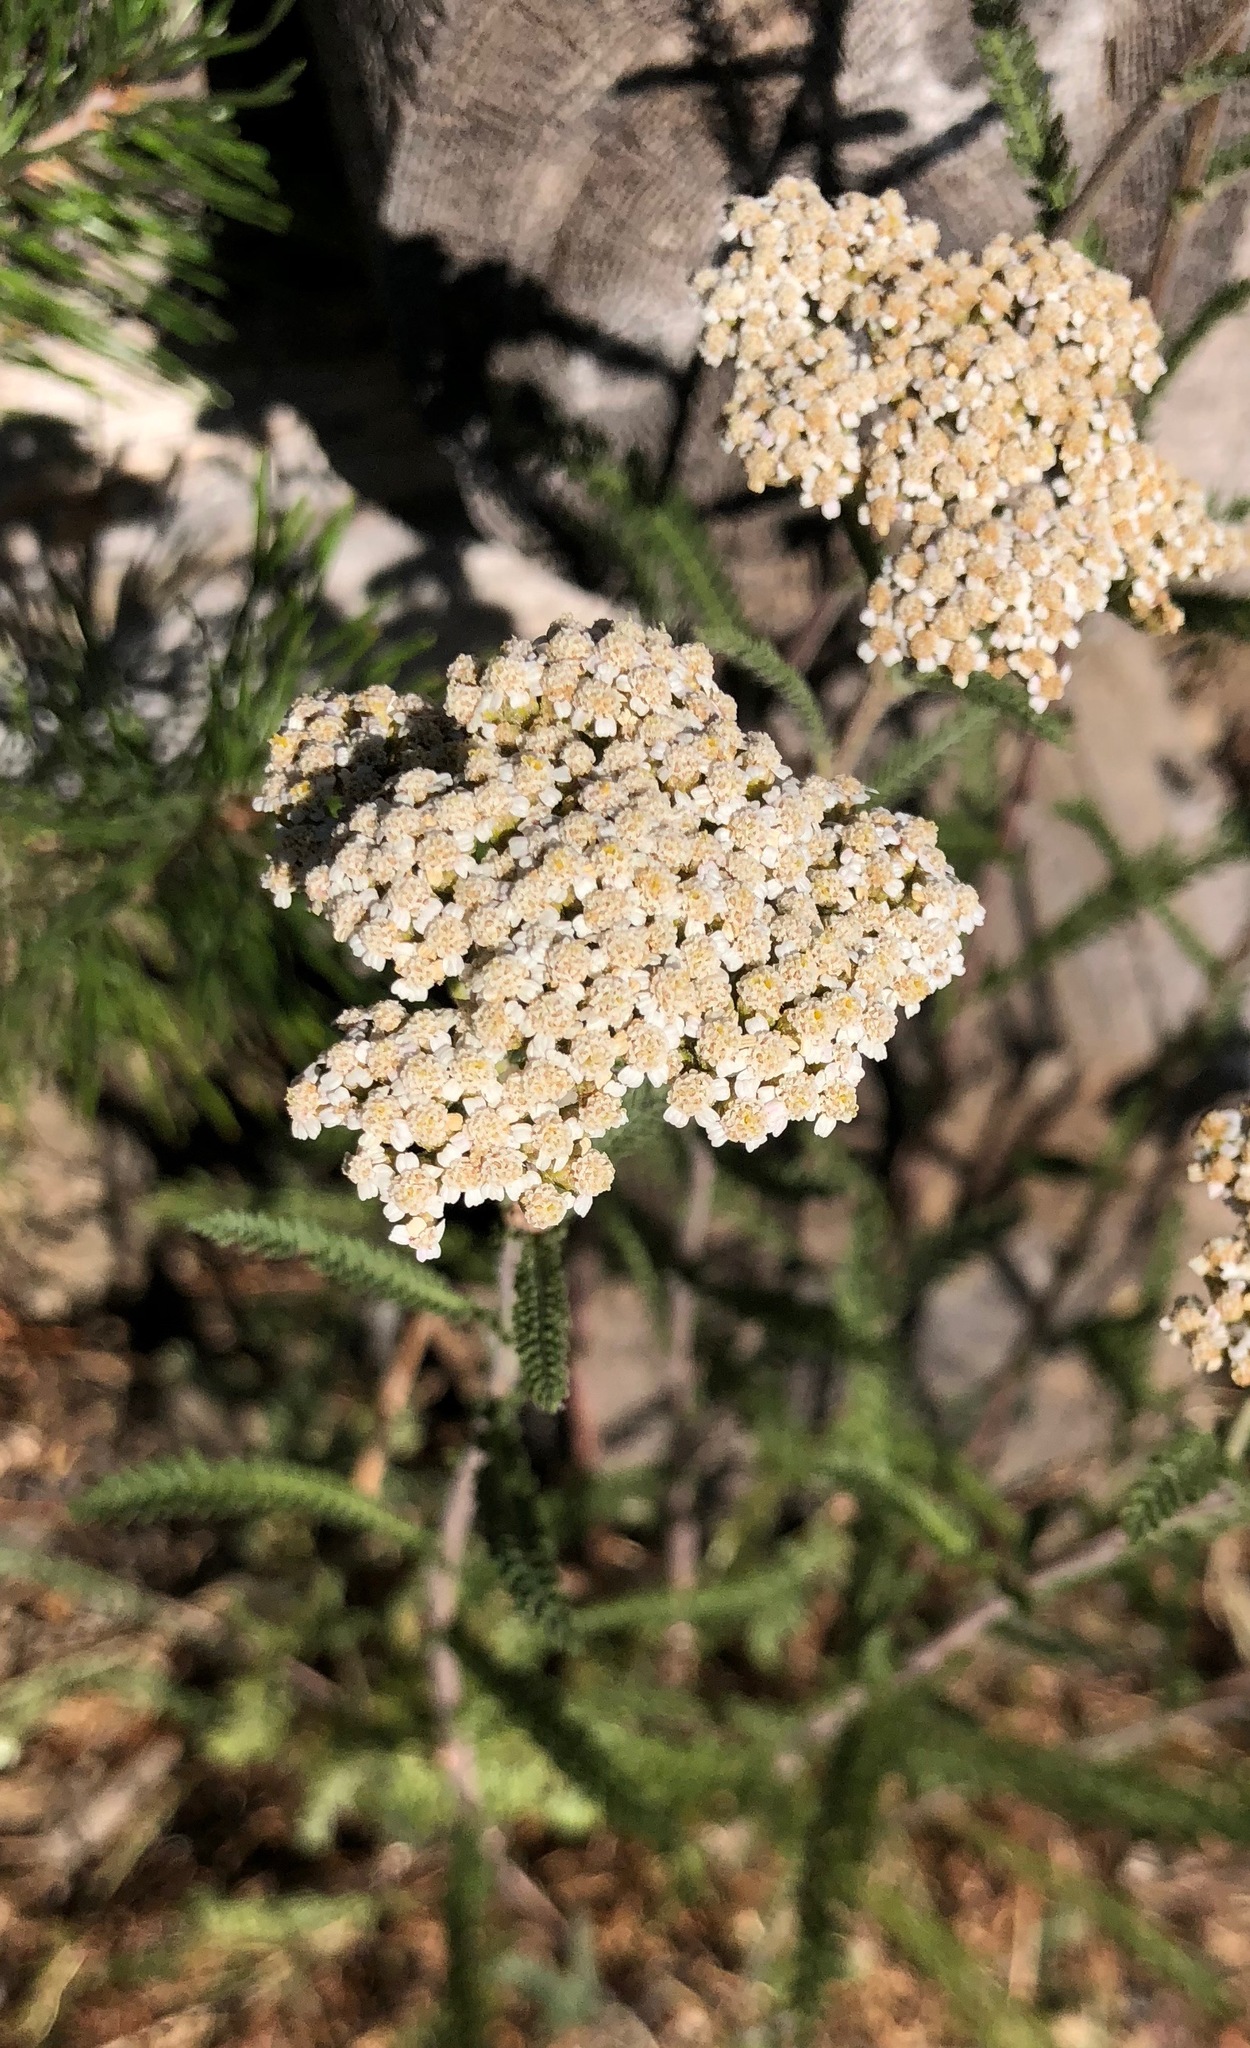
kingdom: Plantae
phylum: Tracheophyta
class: Magnoliopsida
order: Asterales
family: Asteraceae
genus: Achillea
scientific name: Achillea millefolium
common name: Yarrow
